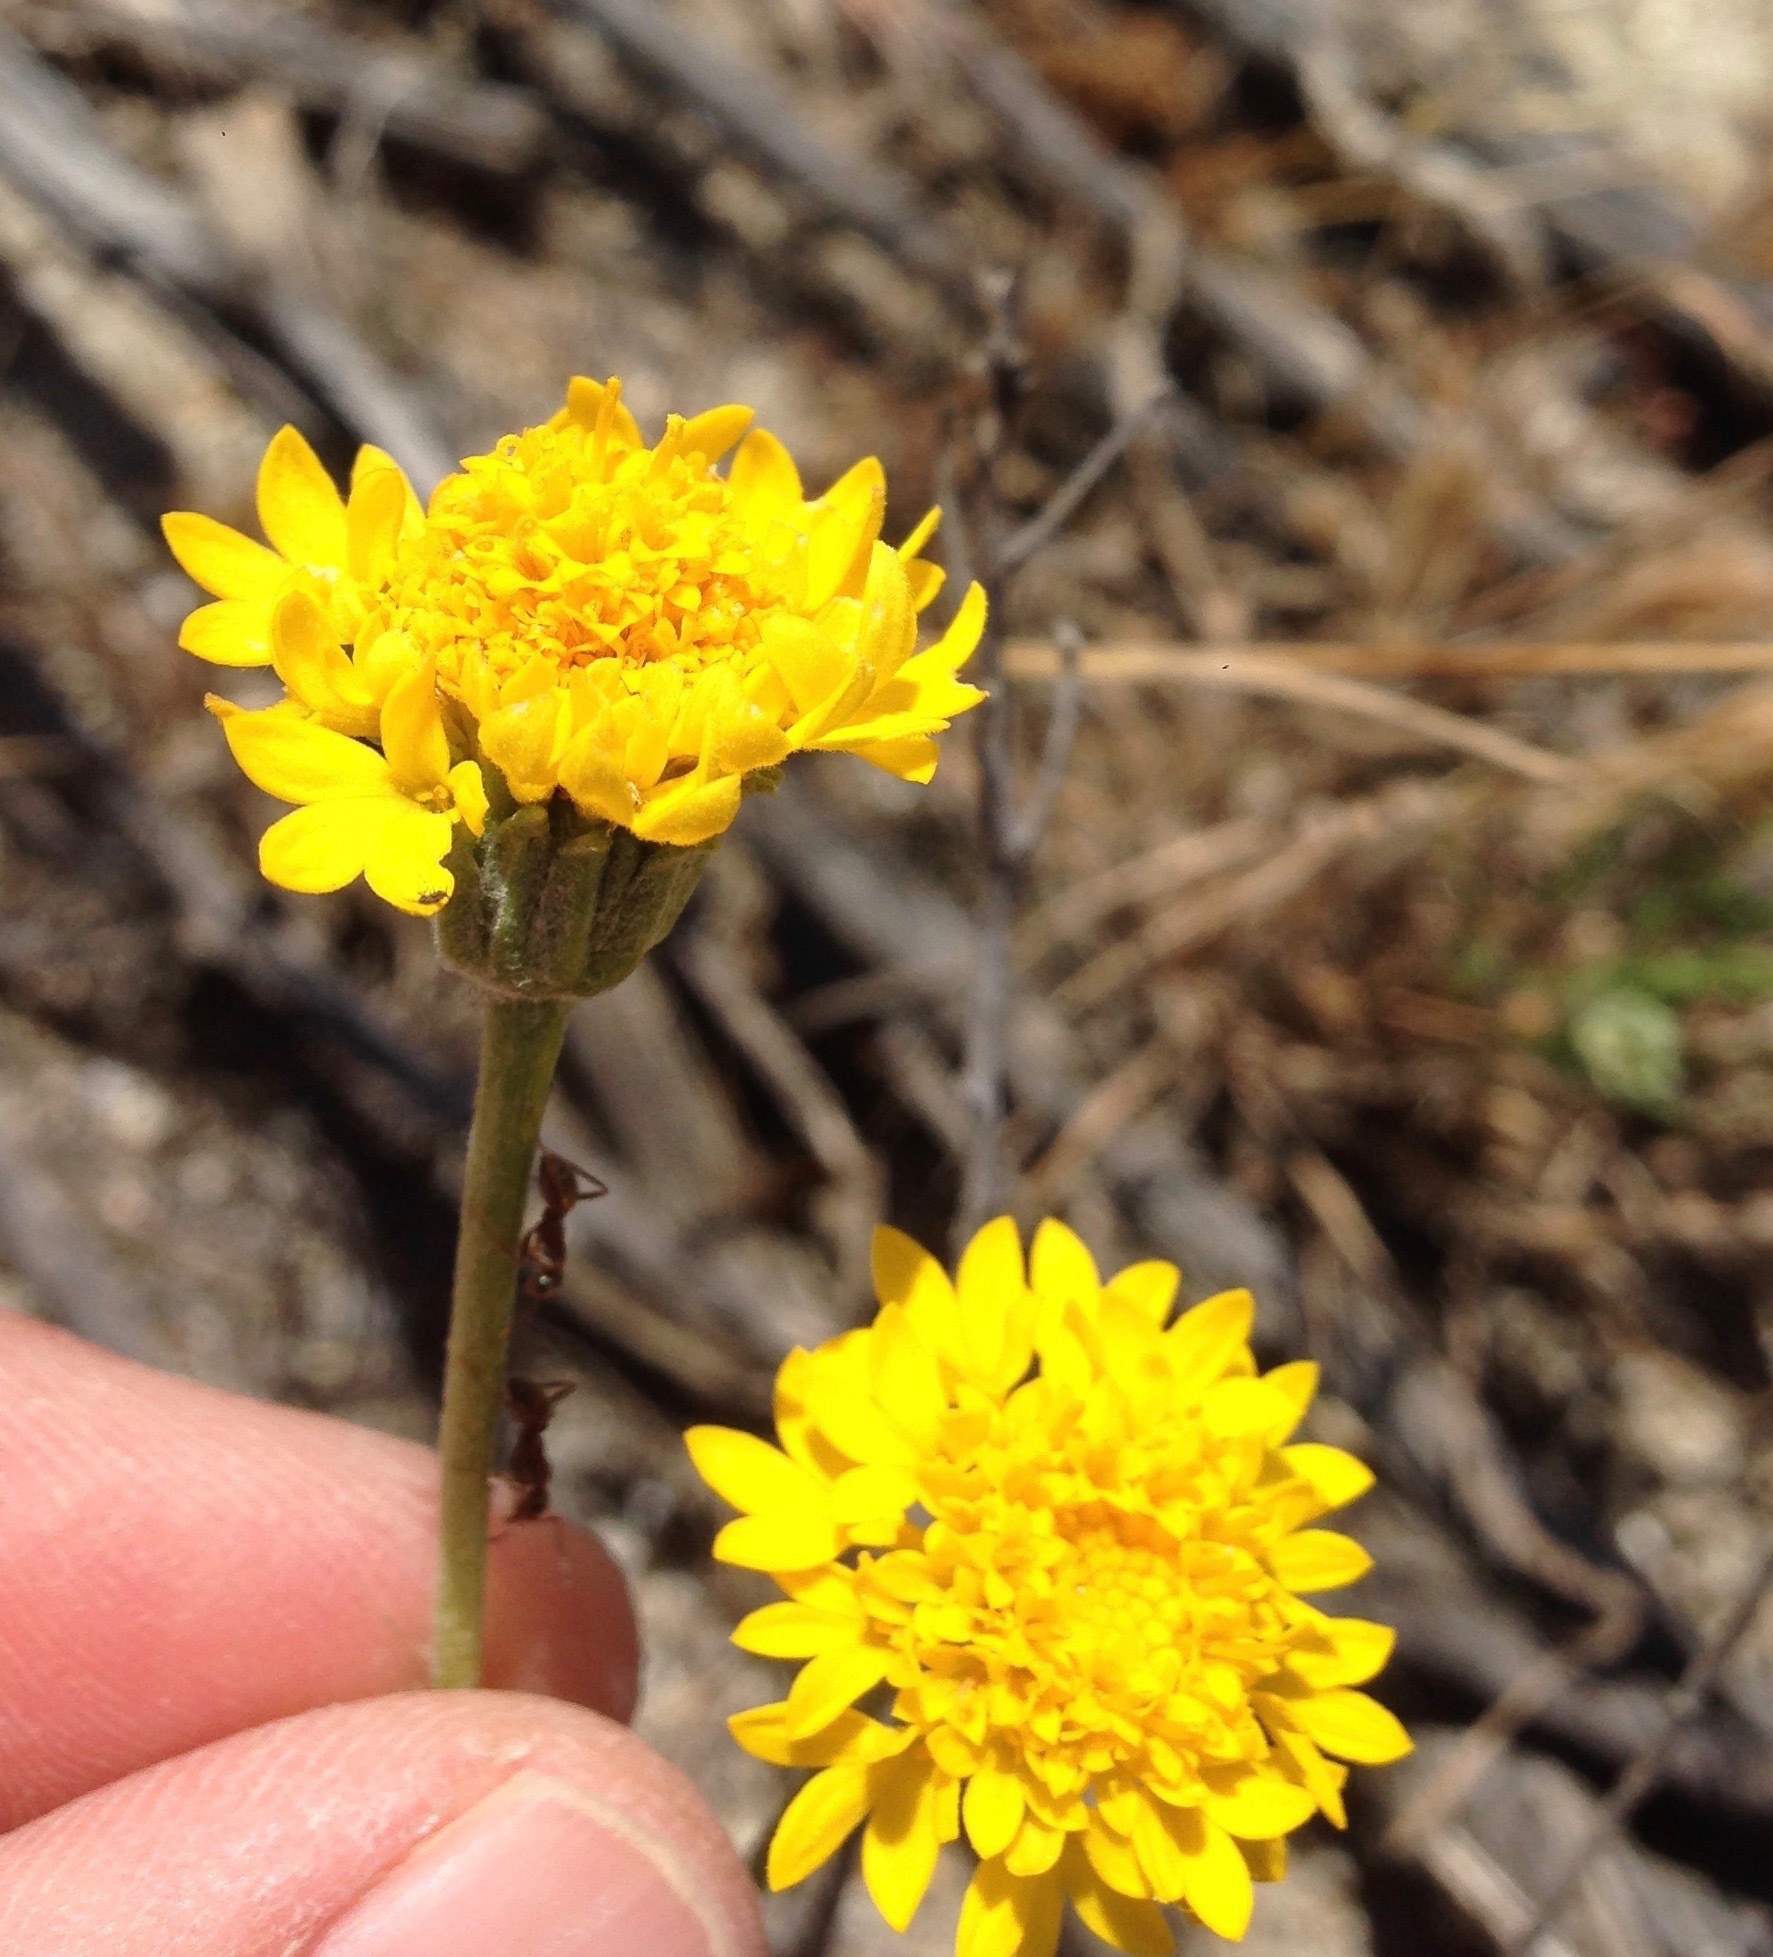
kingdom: Plantae
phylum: Tracheophyta
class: Magnoliopsida
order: Asterales
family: Asteraceae
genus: Chaenactis
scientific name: Chaenactis glabriuscula
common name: Yellow pincushion
